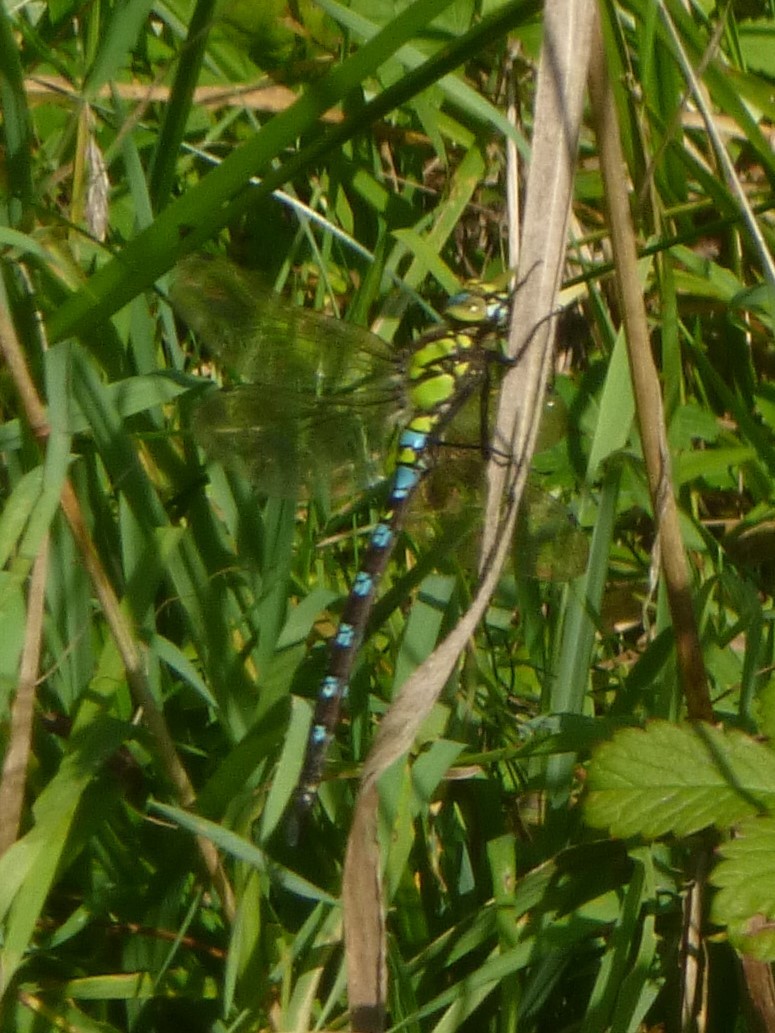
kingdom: Animalia
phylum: Arthropoda
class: Insecta
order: Odonata
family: Aeshnidae
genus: Aeshna
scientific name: Aeshna cyanea
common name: Southern hawker
